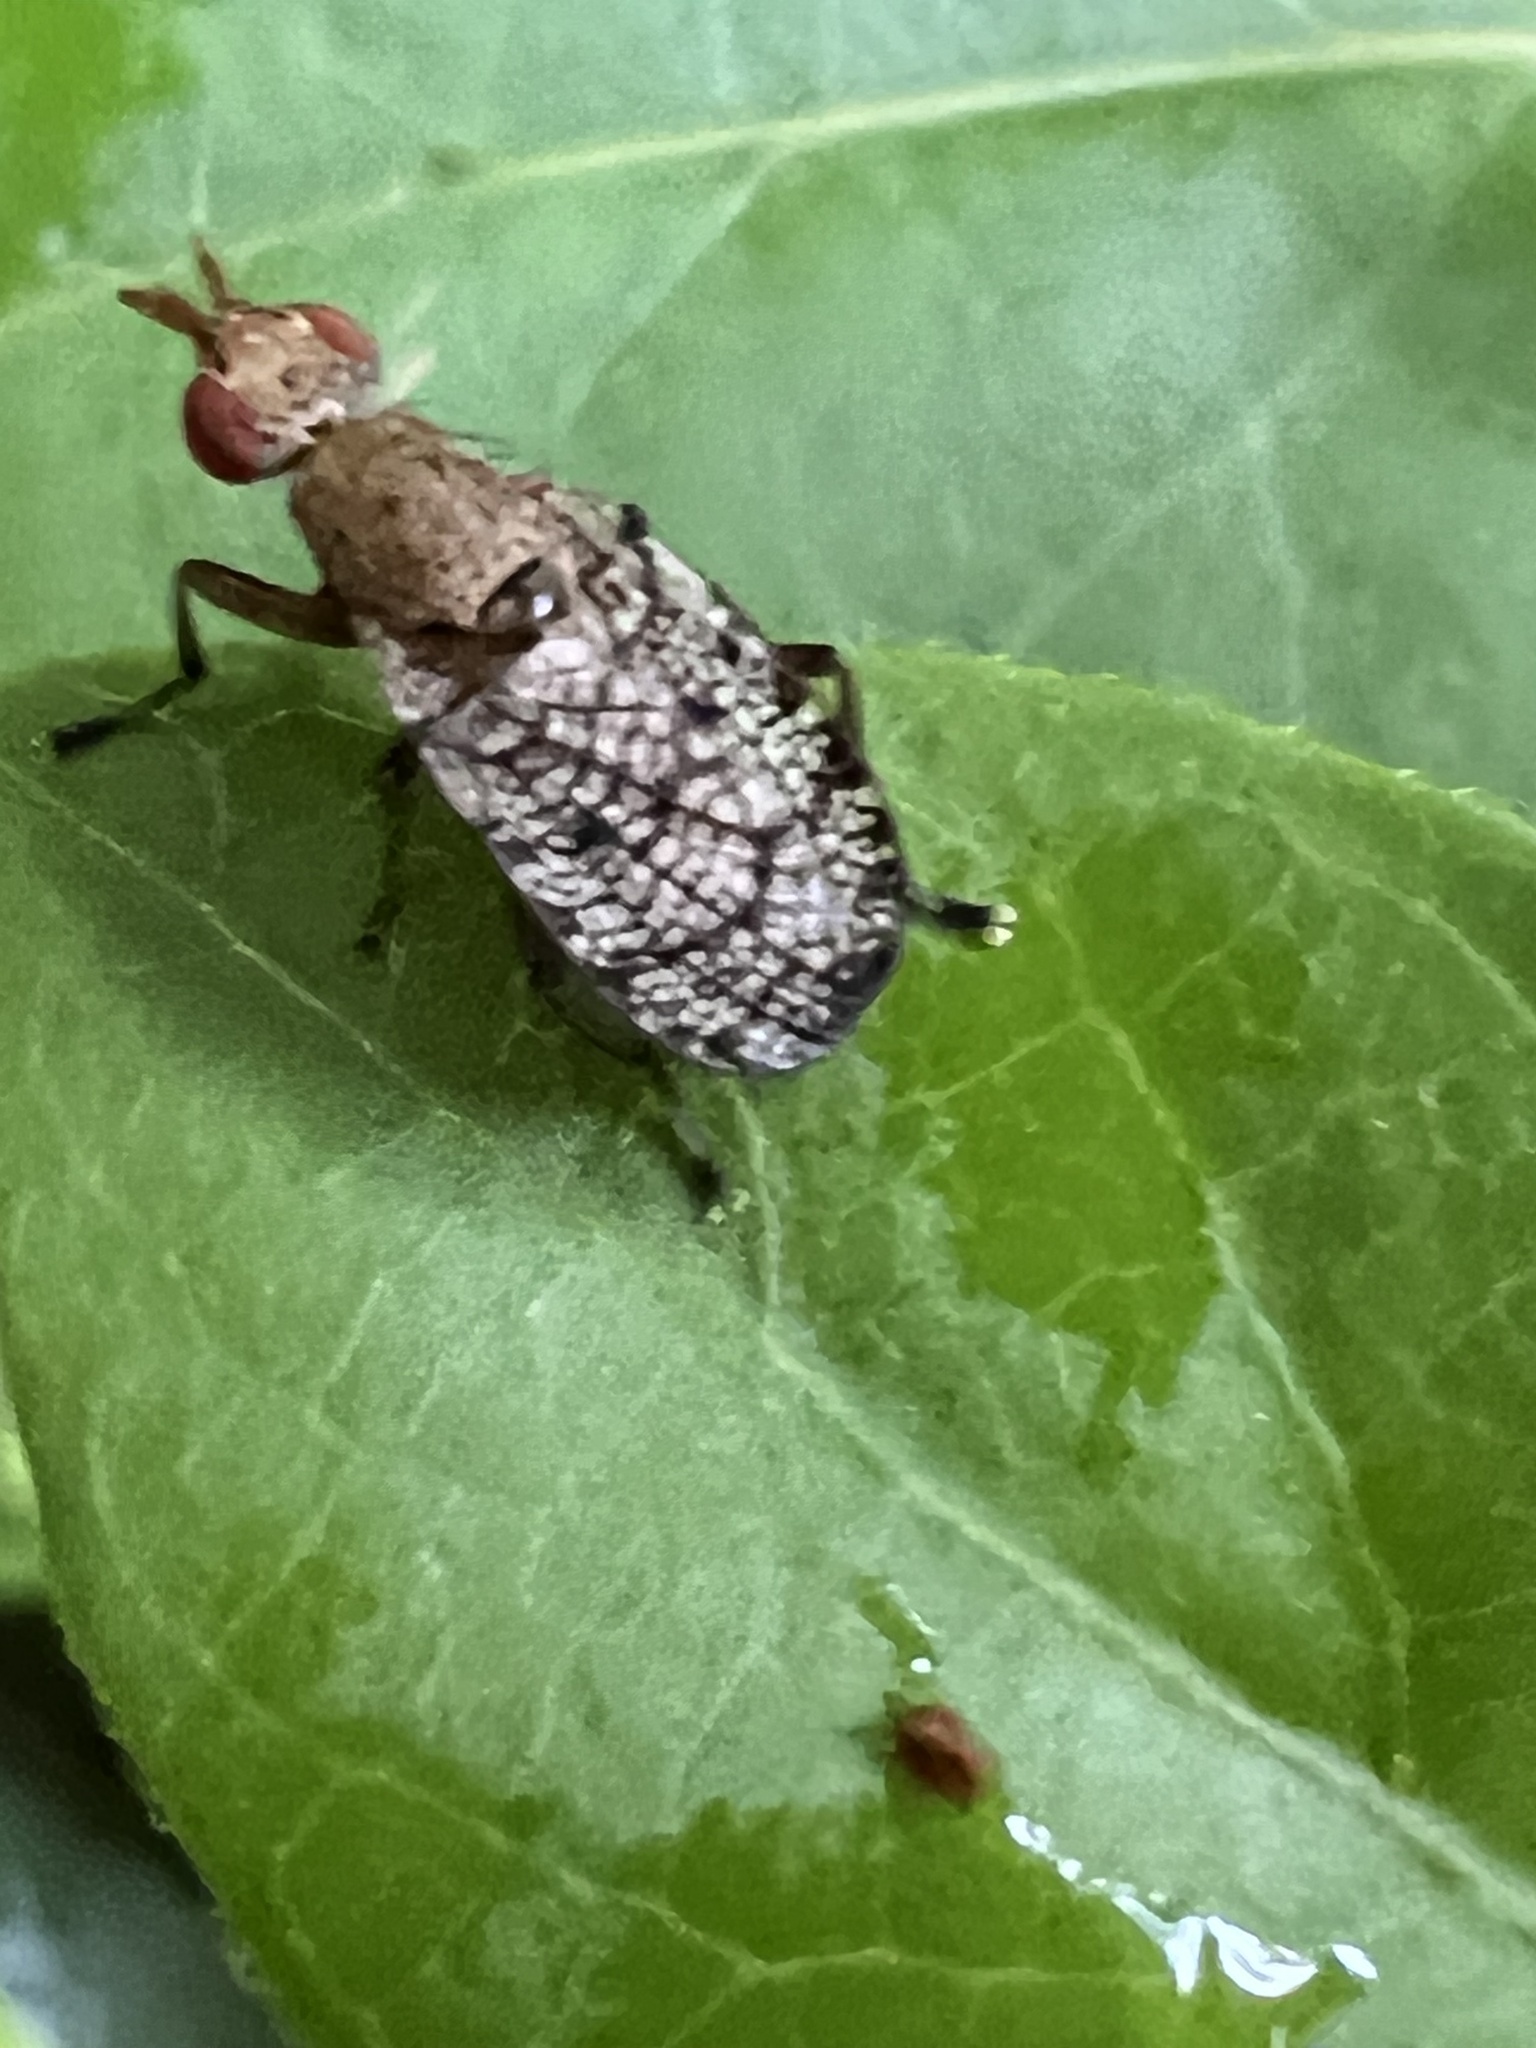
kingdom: Animalia
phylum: Arthropoda
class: Insecta
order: Diptera
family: Sciomyzidae
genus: Euthycera
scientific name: Euthycera flavescens
